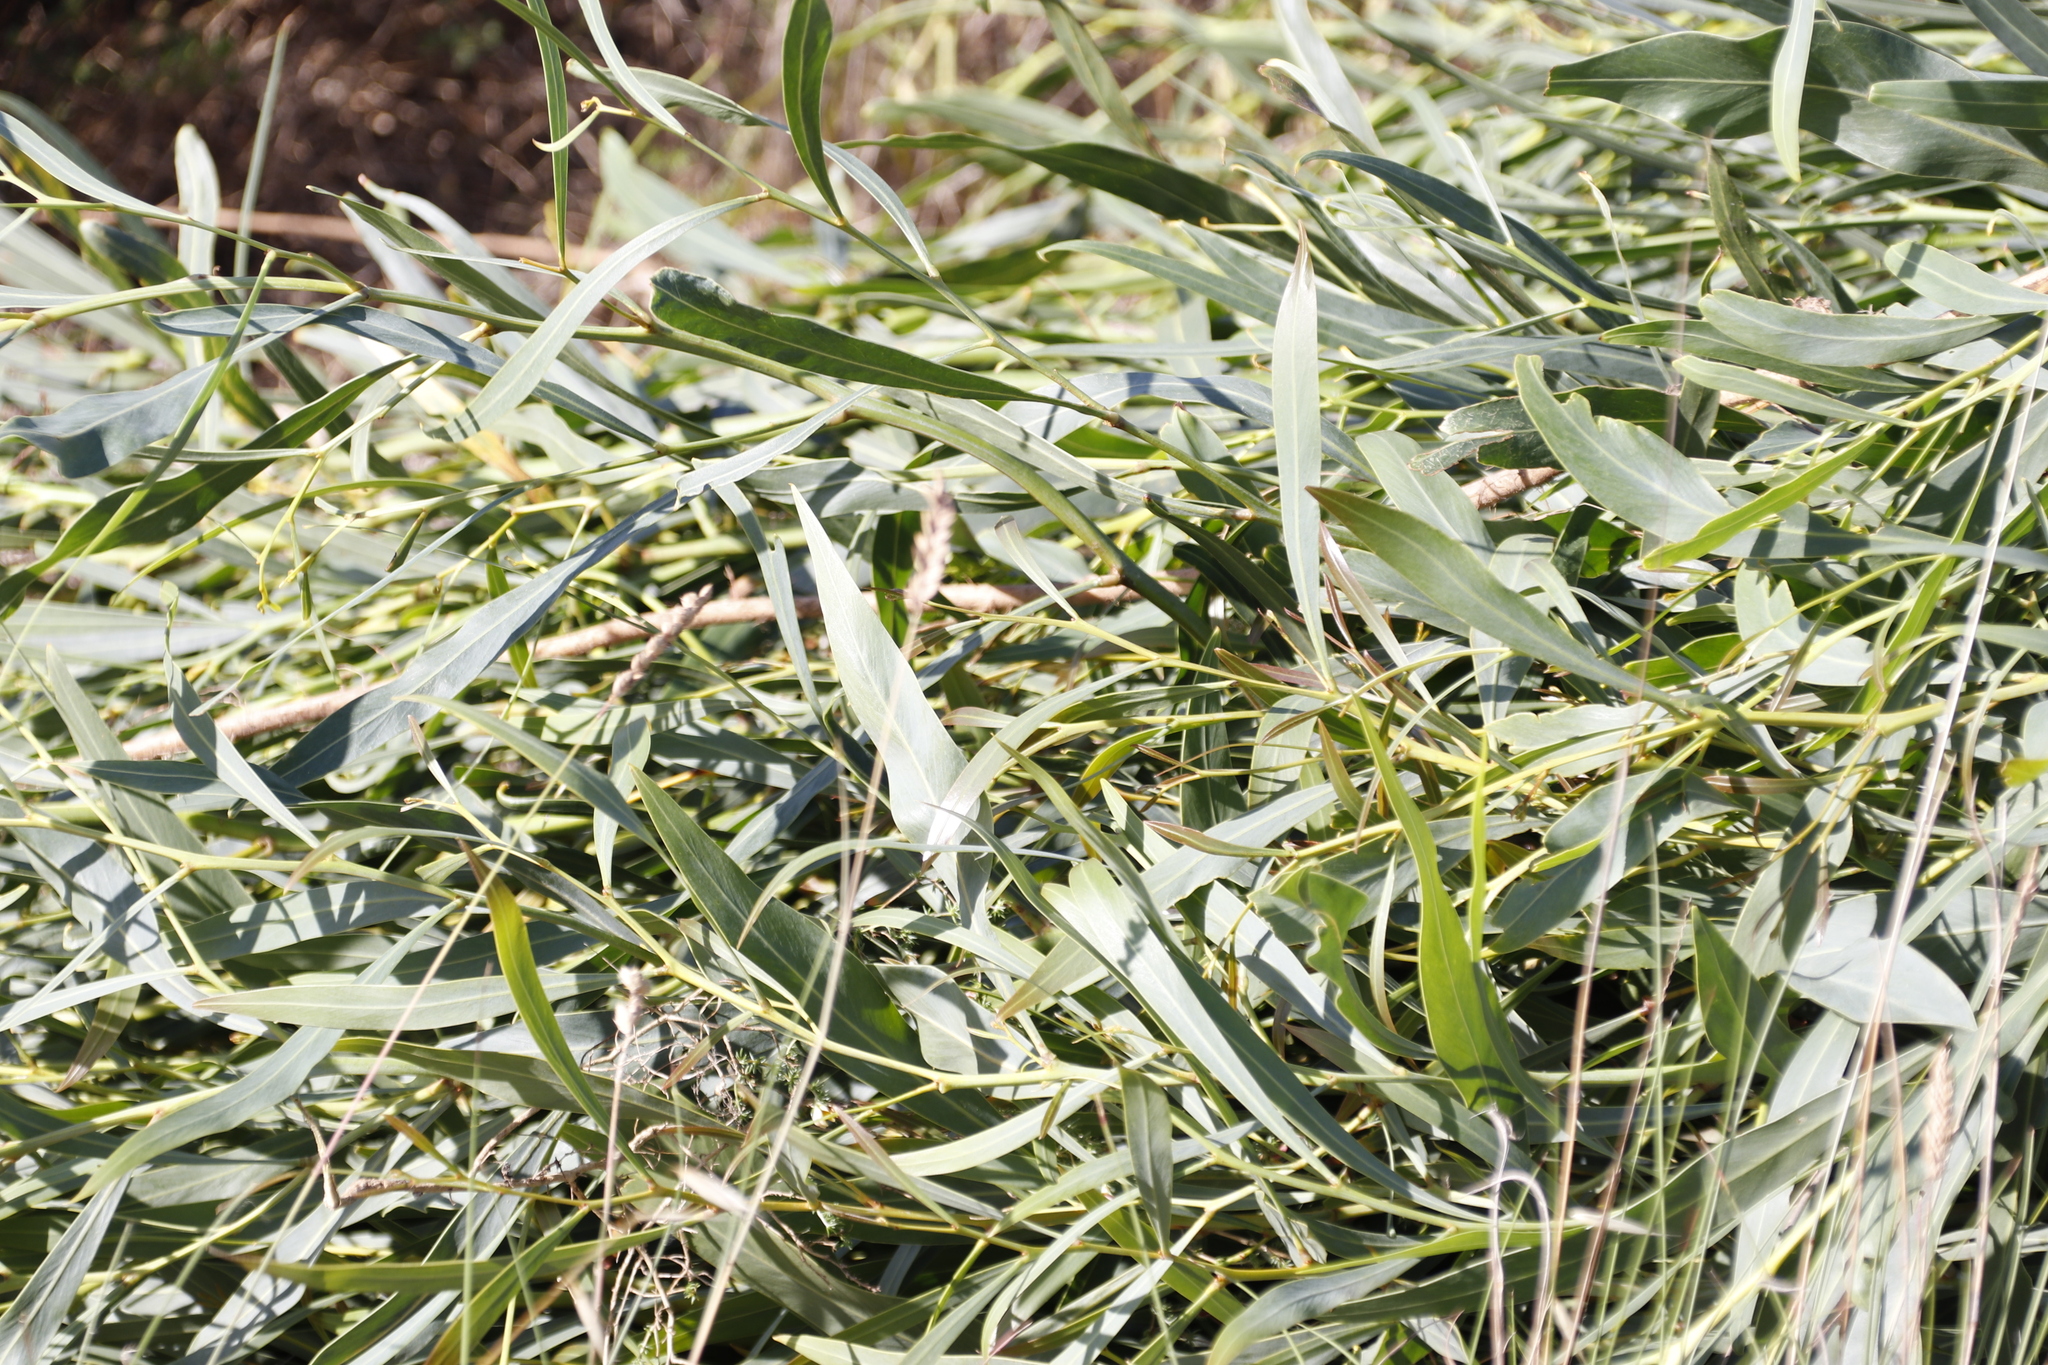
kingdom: Plantae
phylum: Tracheophyta
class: Magnoliopsida
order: Fabales
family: Fabaceae
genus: Acacia
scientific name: Acacia saligna
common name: Orange wattle
